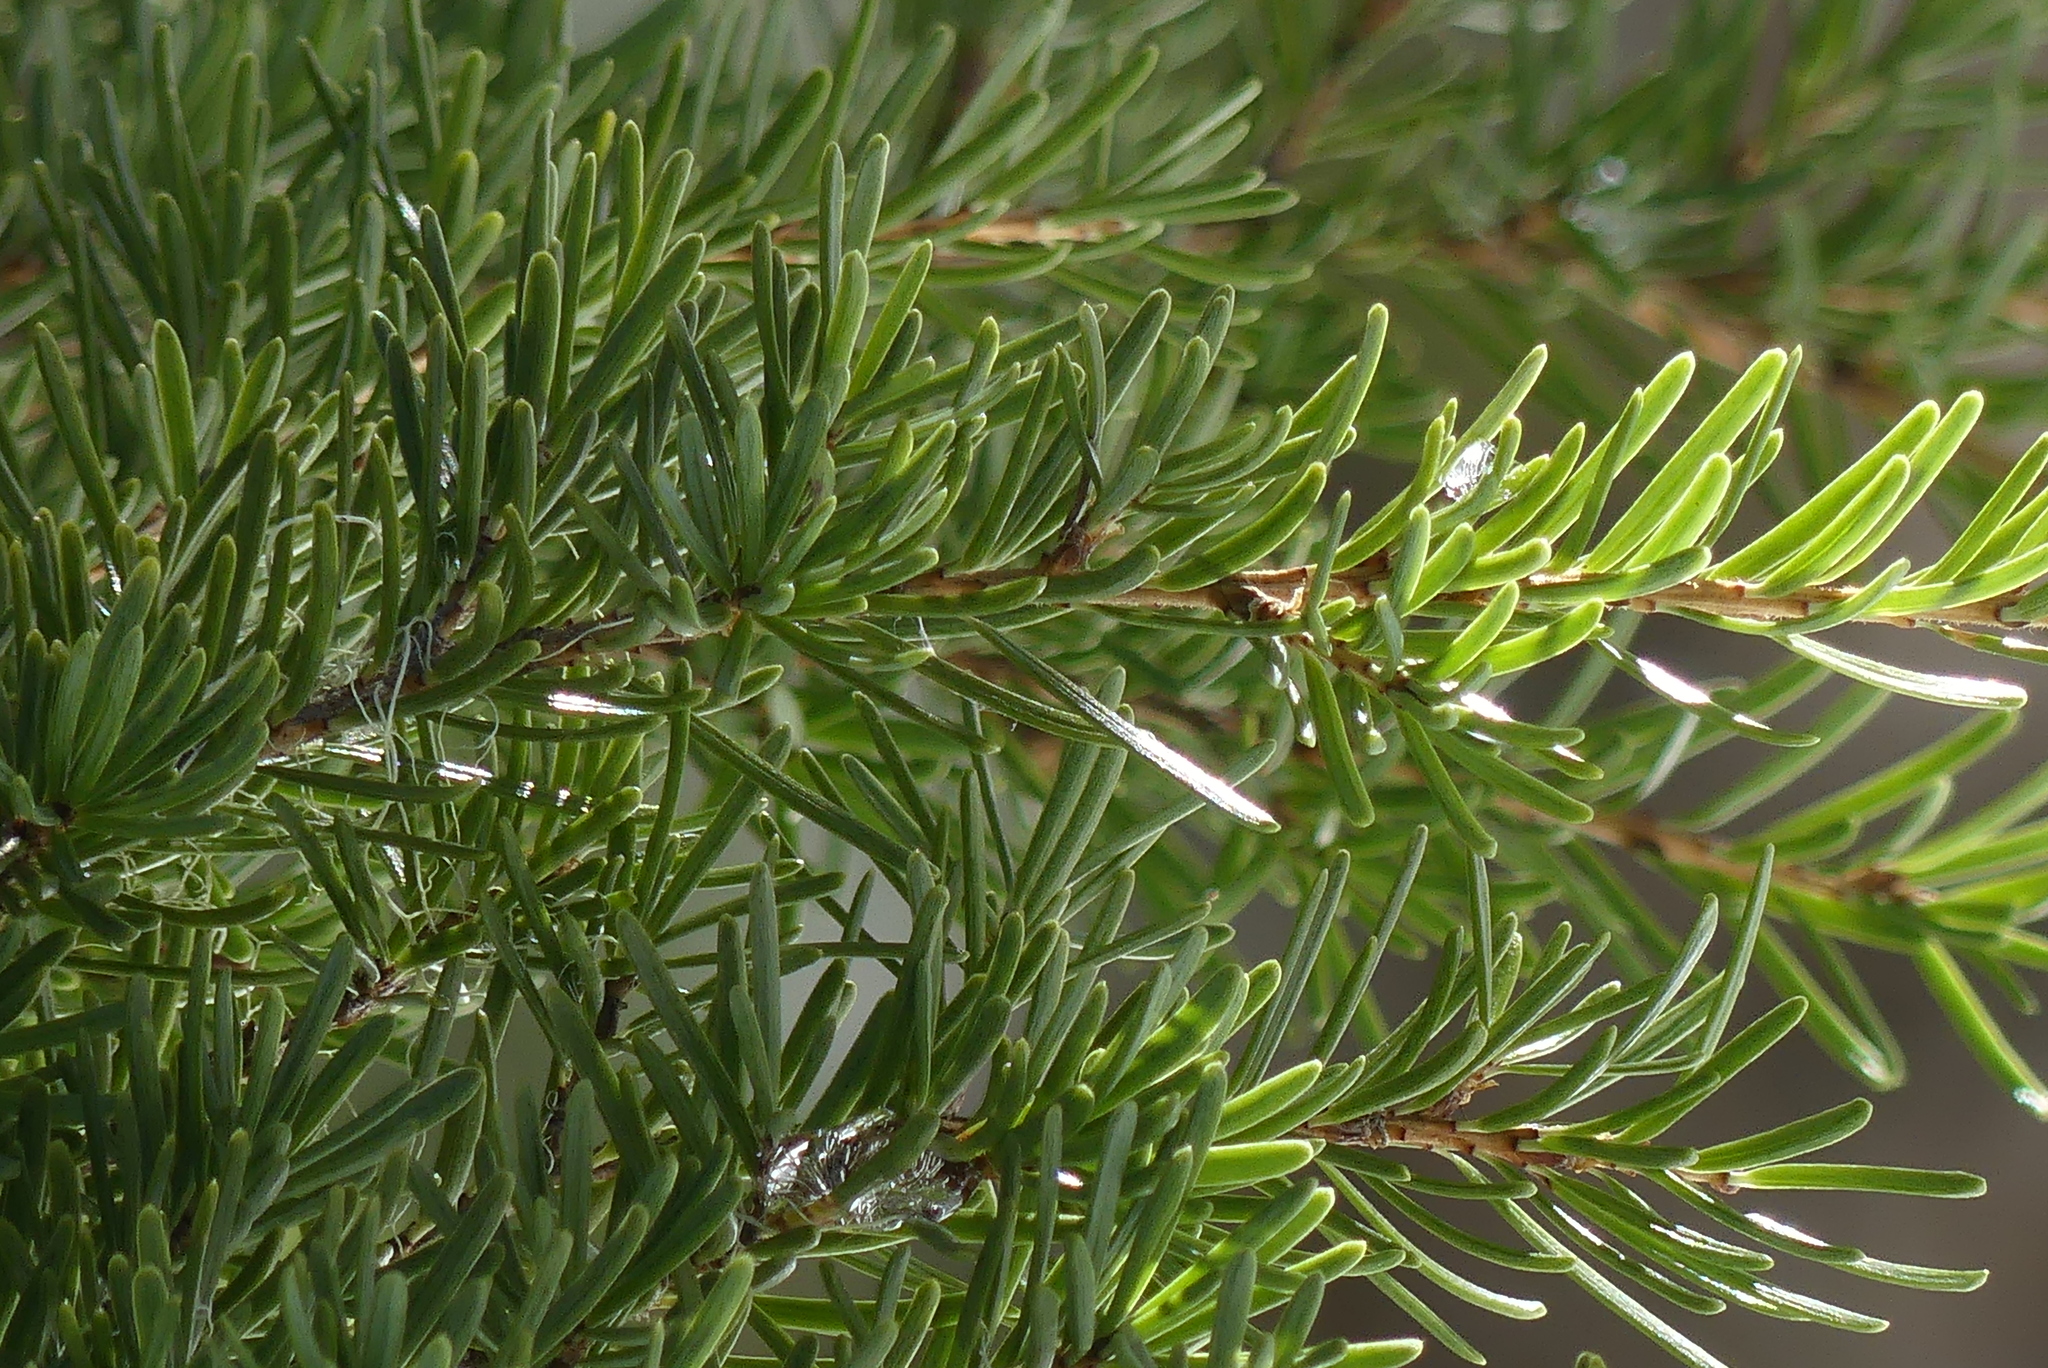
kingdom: Plantae
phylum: Tracheophyta
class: Pinopsida
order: Pinales
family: Pinaceae
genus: Tsuga
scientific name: Tsuga mertensiana
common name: Mountain hemlock
